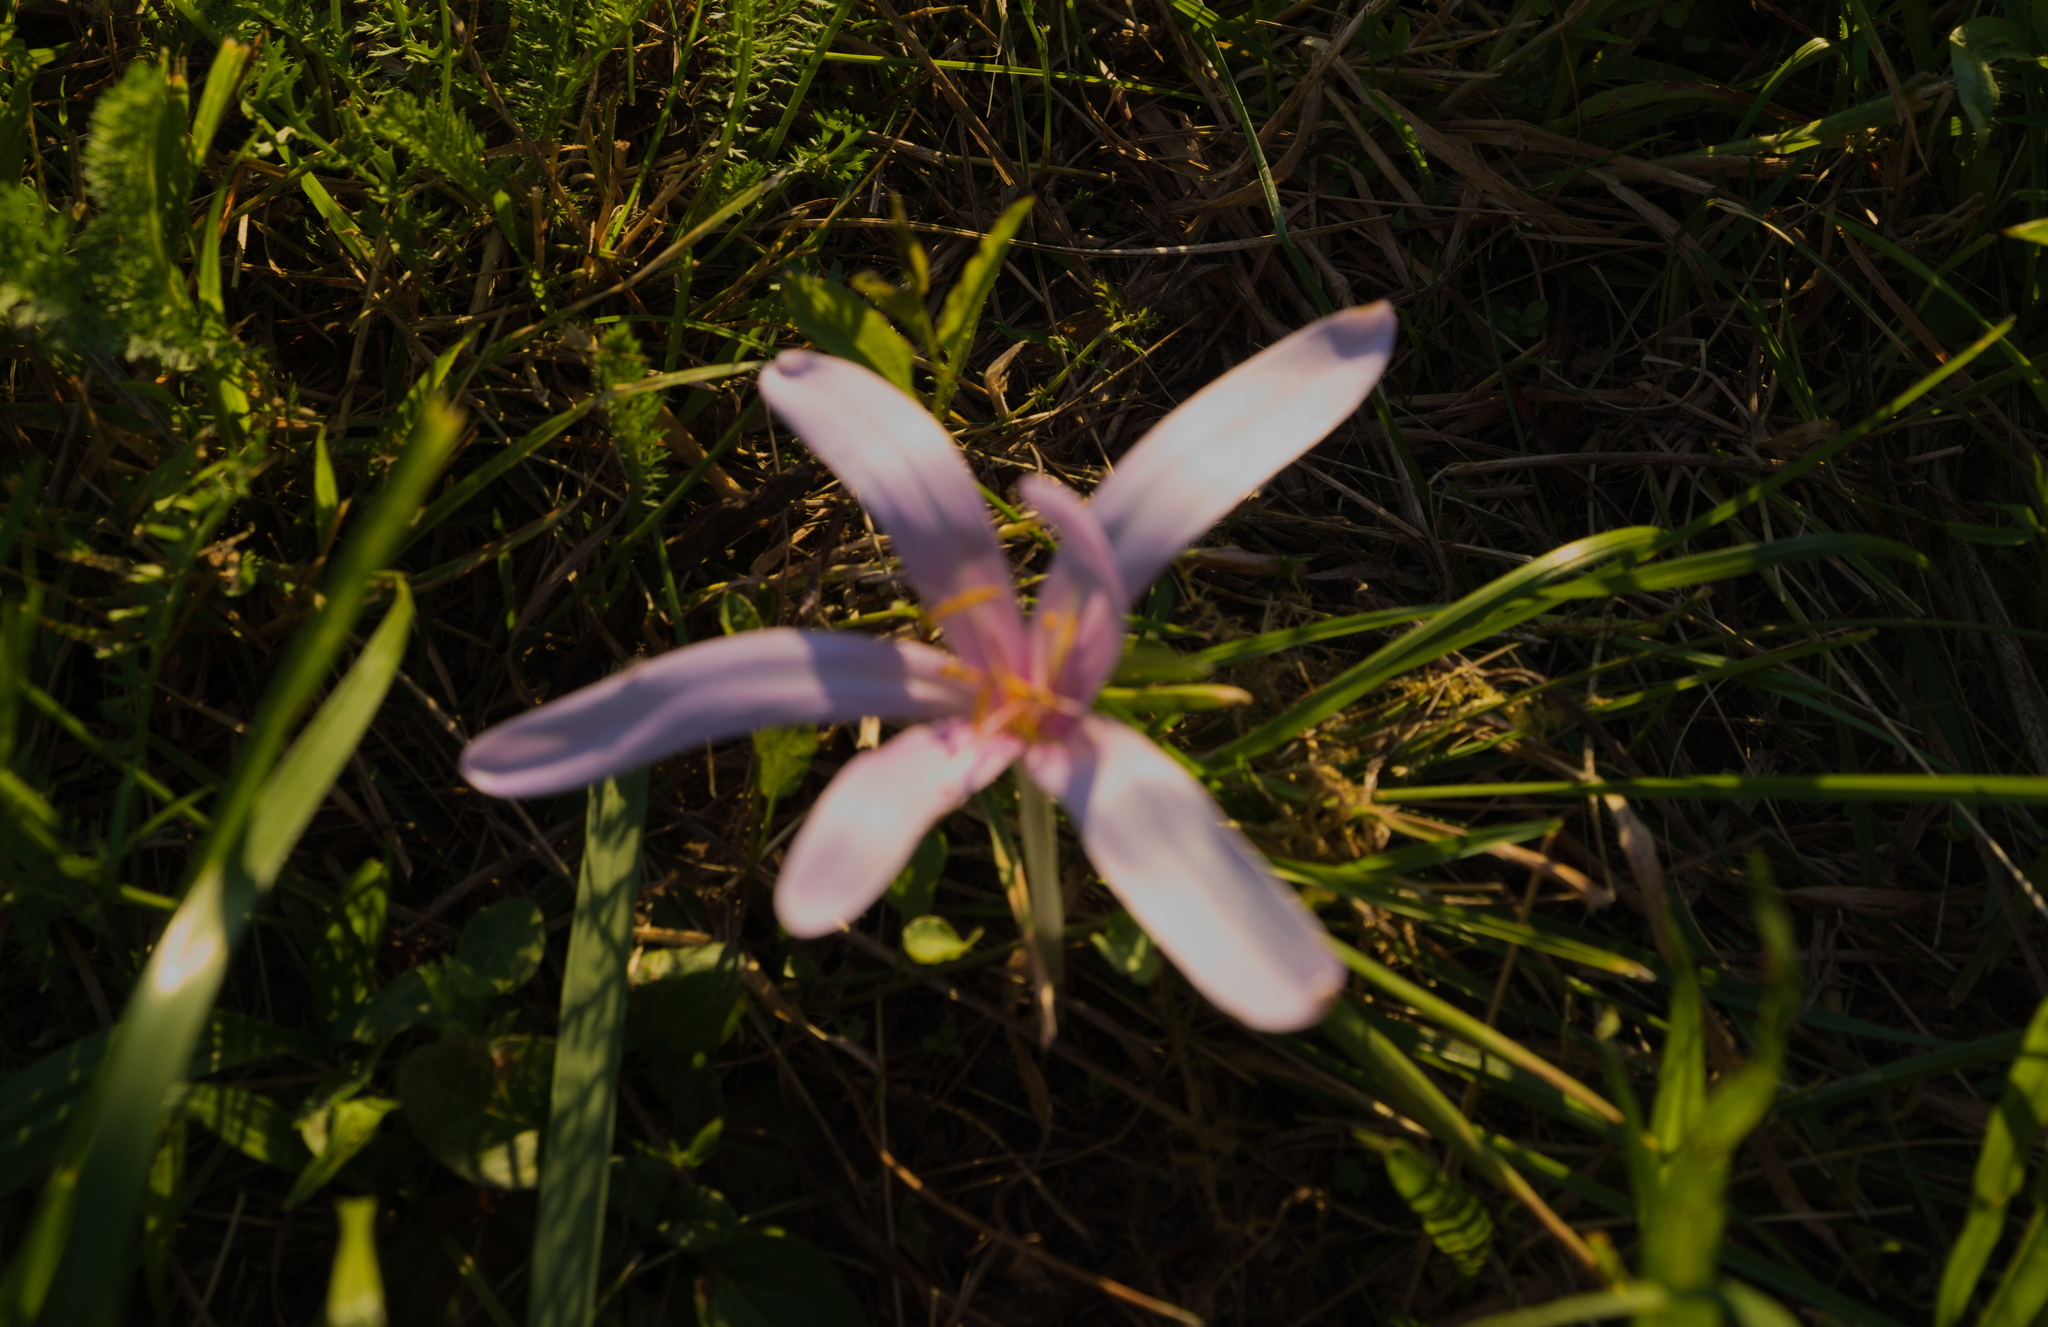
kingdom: Plantae
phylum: Tracheophyta
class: Liliopsida
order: Liliales
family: Colchicaceae
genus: Colchicum
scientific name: Colchicum autumnale
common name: Autumn crocus
